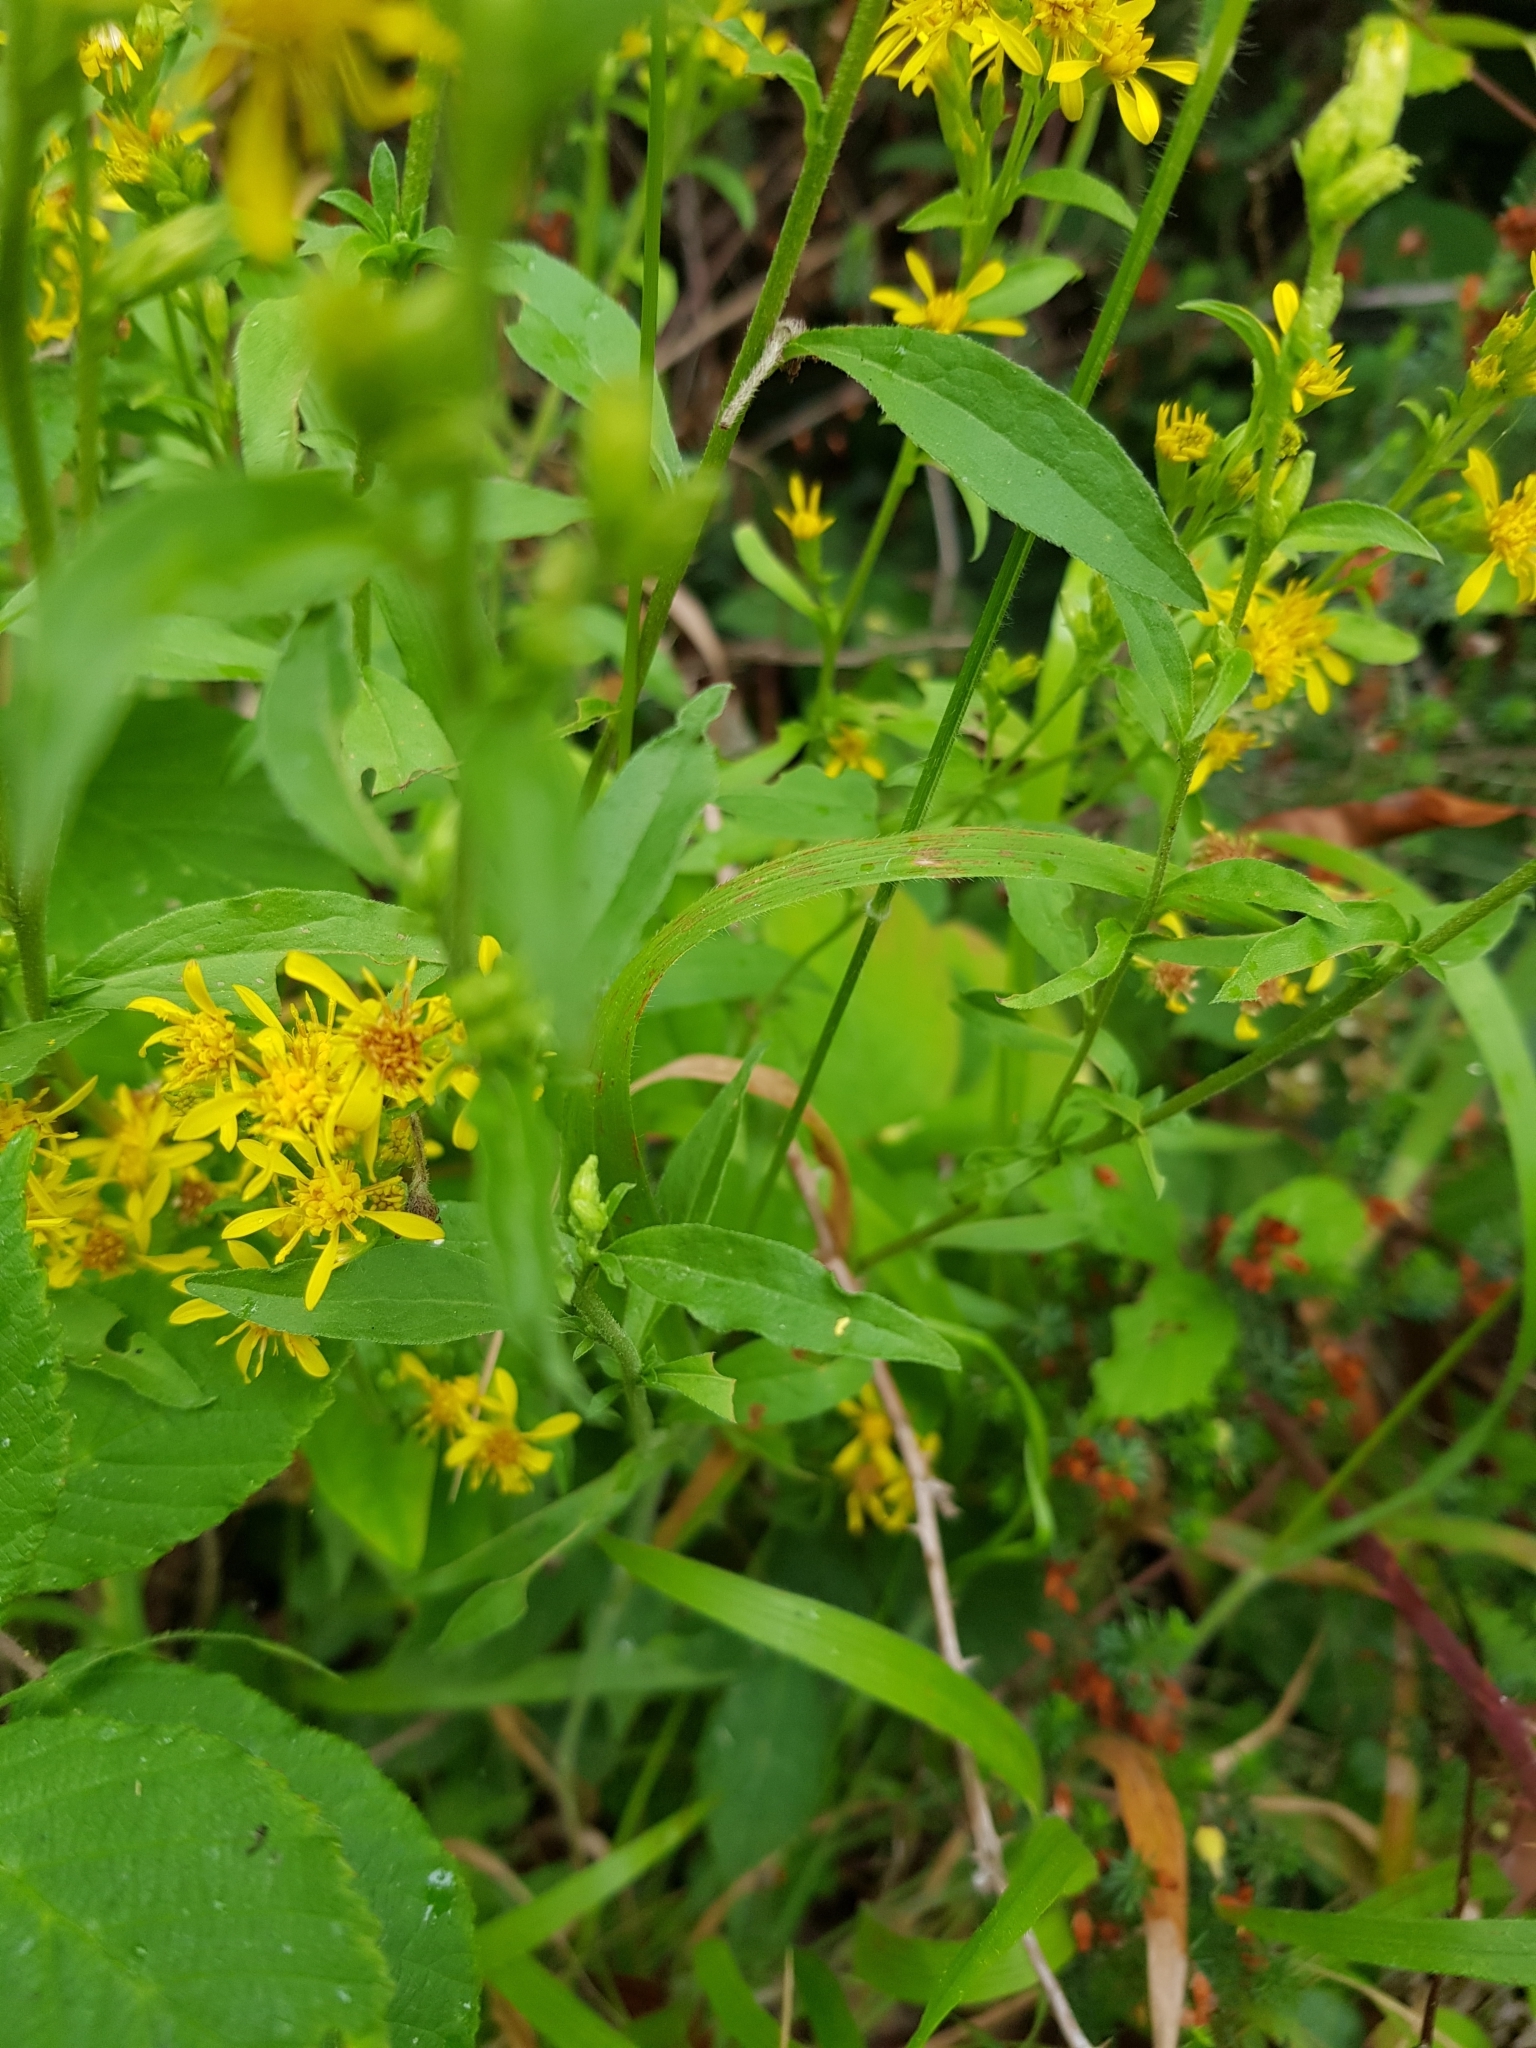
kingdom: Plantae
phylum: Tracheophyta
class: Magnoliopsida
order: Asterales
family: Asteraceae
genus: Solidago
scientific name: Solidago virgaurea
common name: Goldenrod
